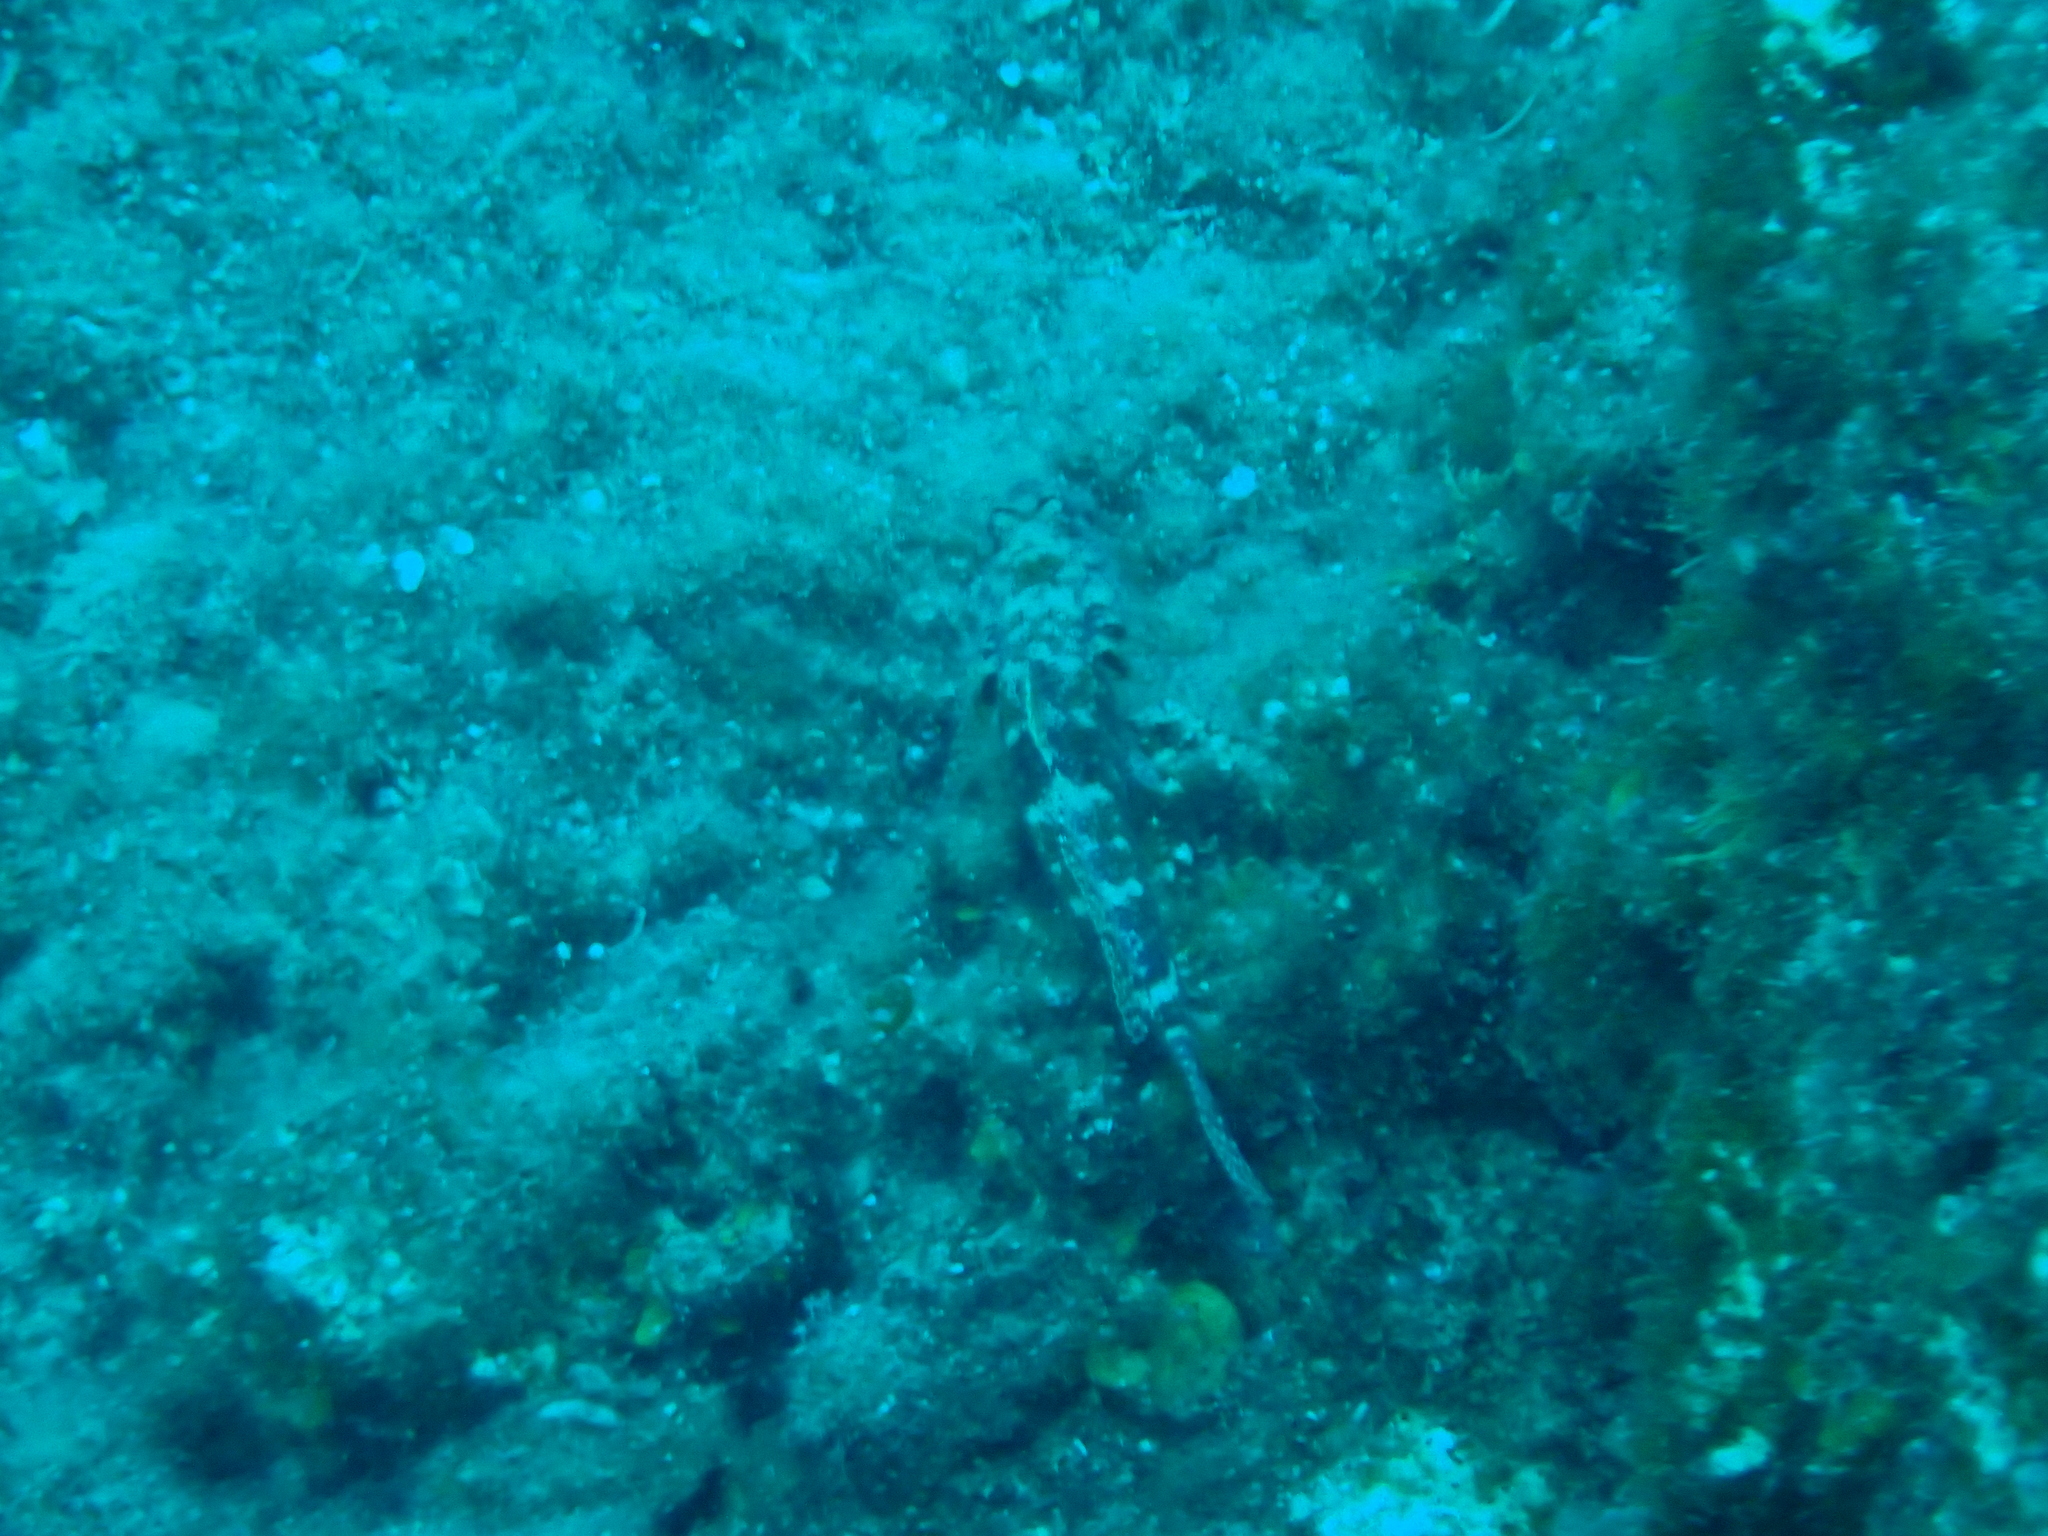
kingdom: Animalia
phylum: Chordata
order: Perciformes
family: Gobiidae
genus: Gobius
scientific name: Gobius cruentatus
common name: Red-mouthed goby
